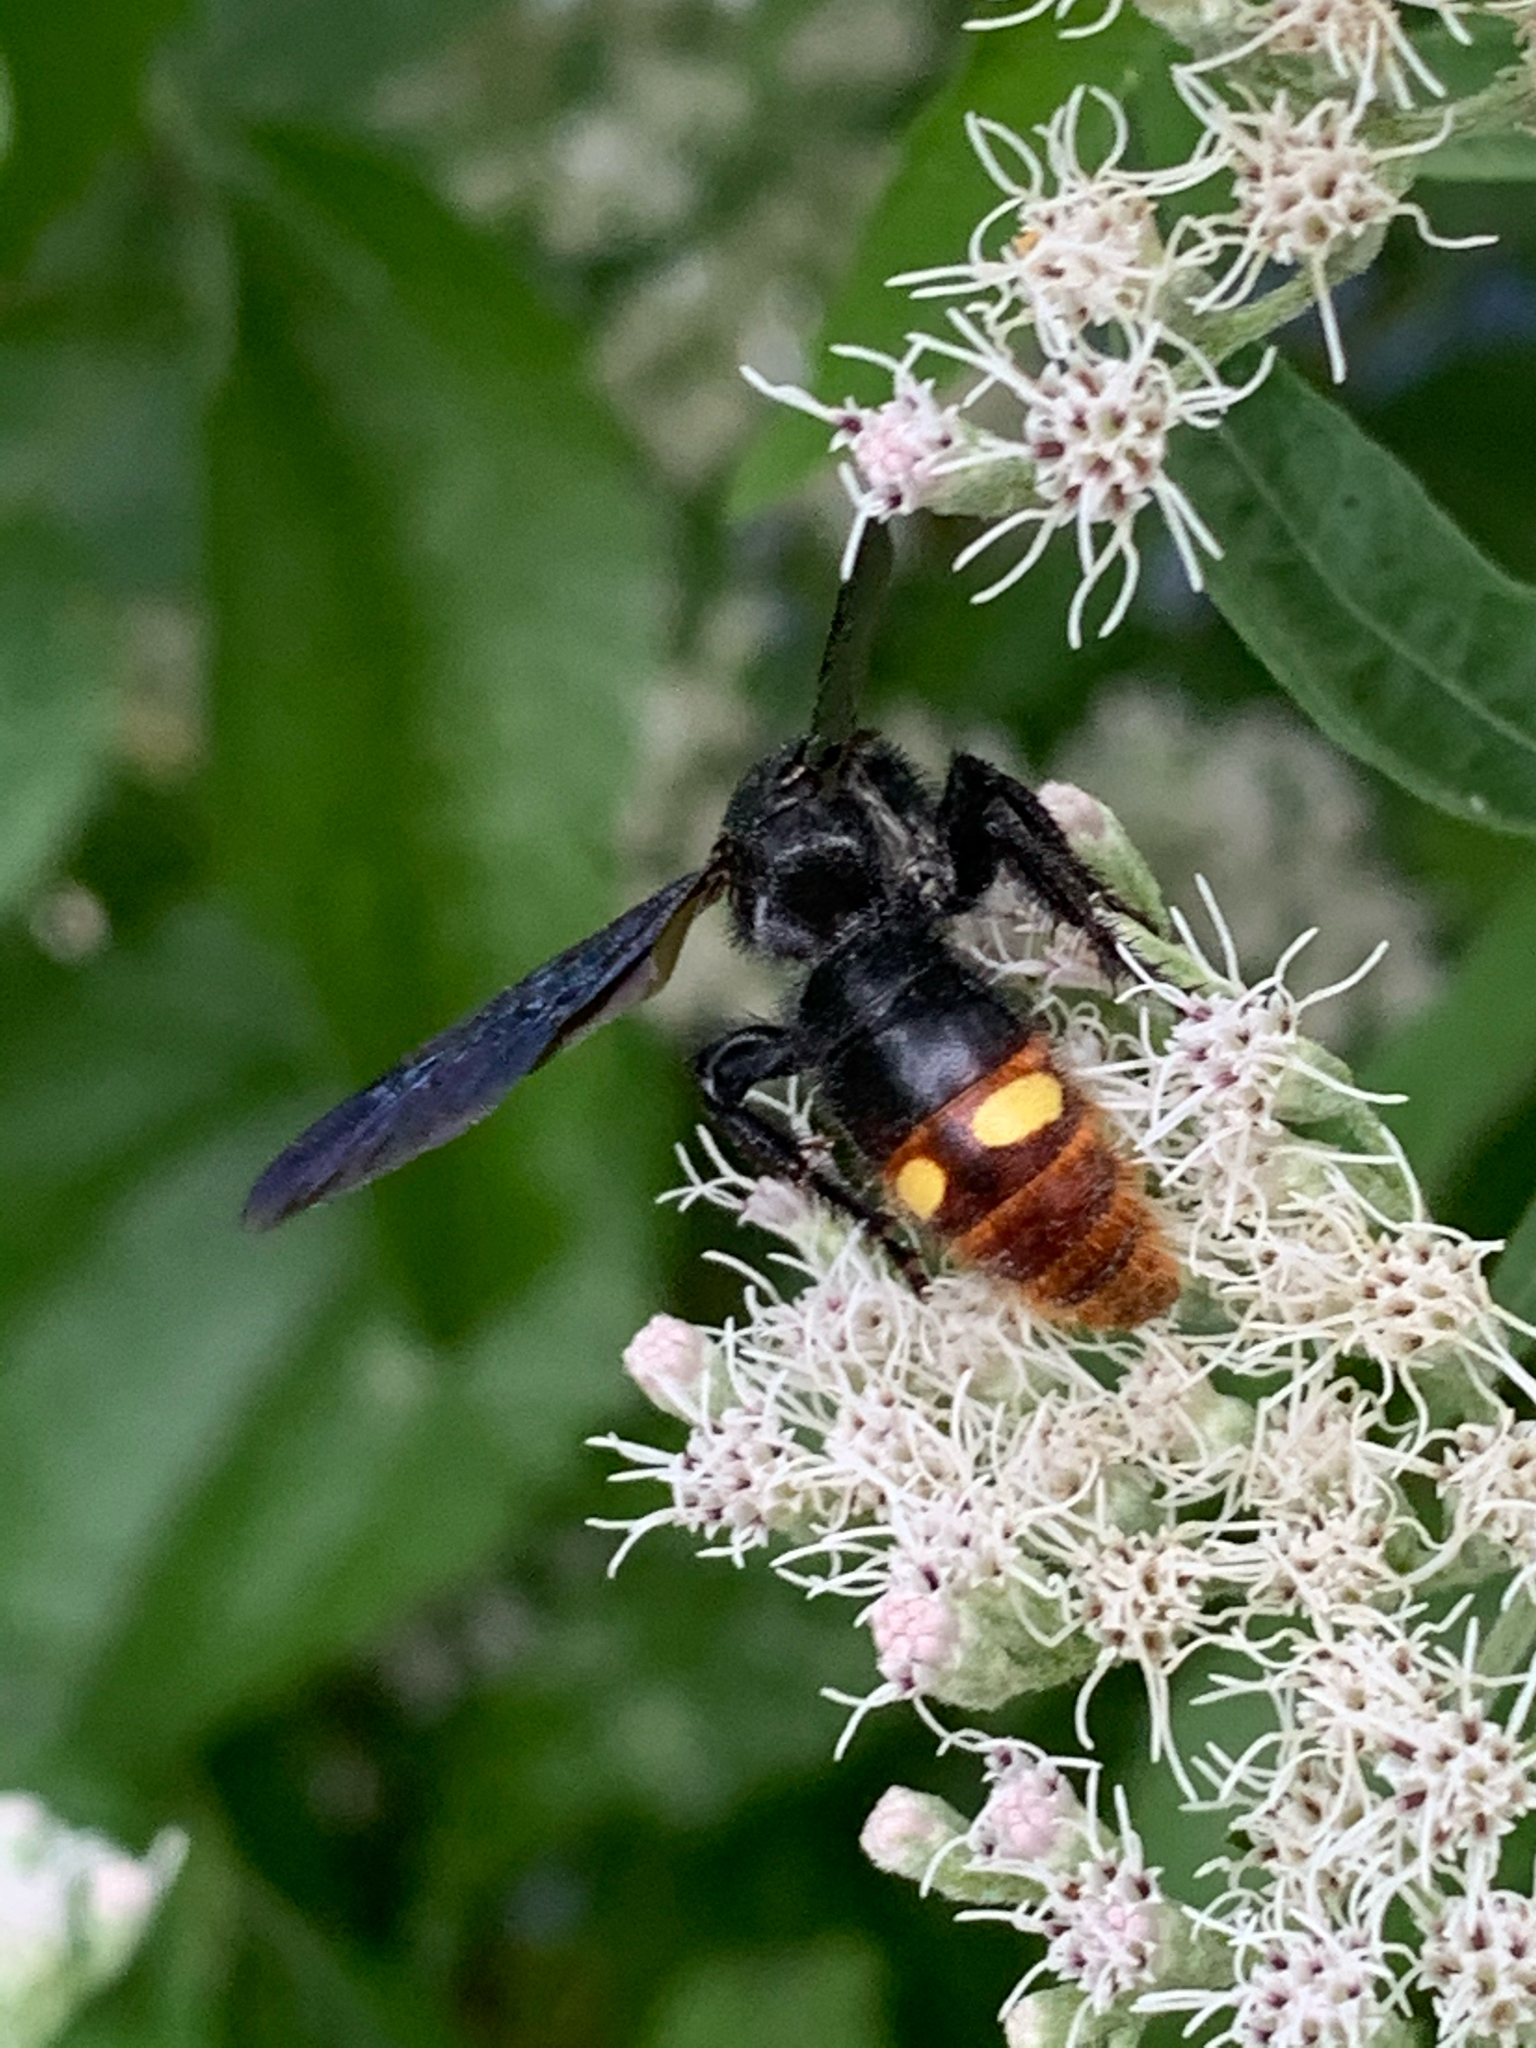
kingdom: Animalia
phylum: Arthropoda
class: Insecta
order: Hymenoptera
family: Scoliidae
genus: Scolia
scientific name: Scolia dubia
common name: Blue-winged scoliid wasp
